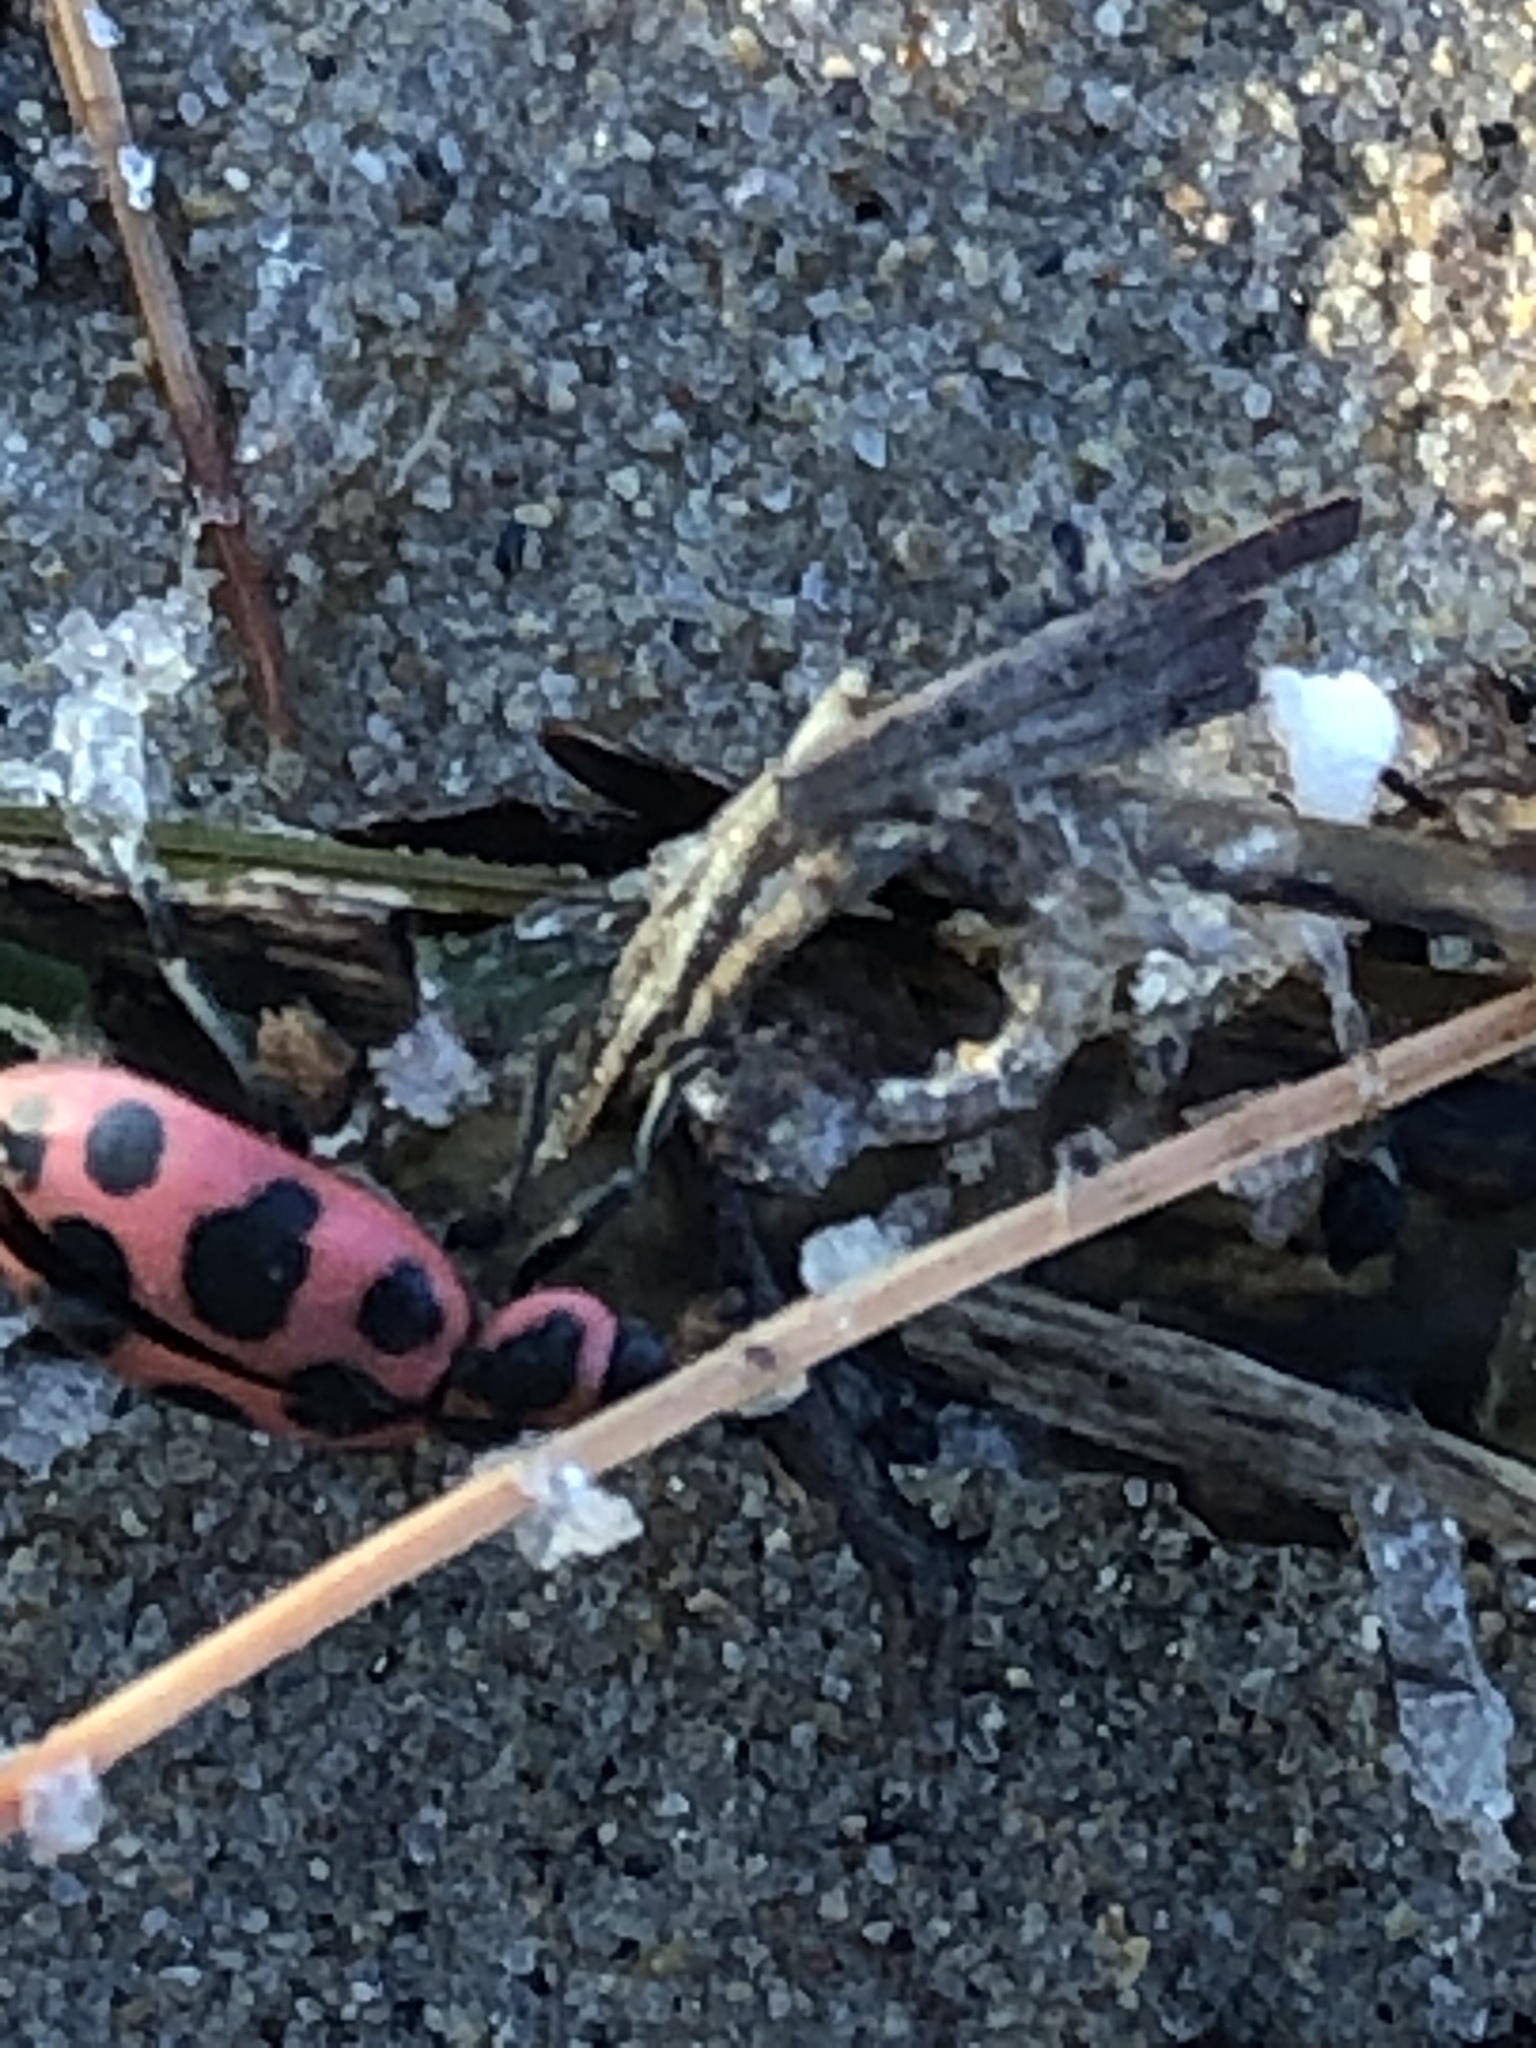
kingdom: Animalia
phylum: Arthropoda
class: Insecta
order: Coleoptera
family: Coccinellidae
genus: Coleomegilla
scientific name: Coleomegilla maculata
